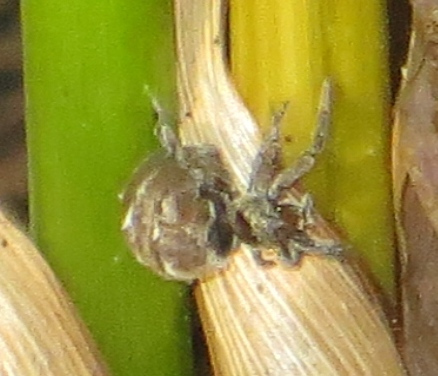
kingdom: Animalia
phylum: Arthropoda
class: Arachnida
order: Araneae
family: Uloboridae
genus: Hyptiotes
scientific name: Hyptiotes cavatus
